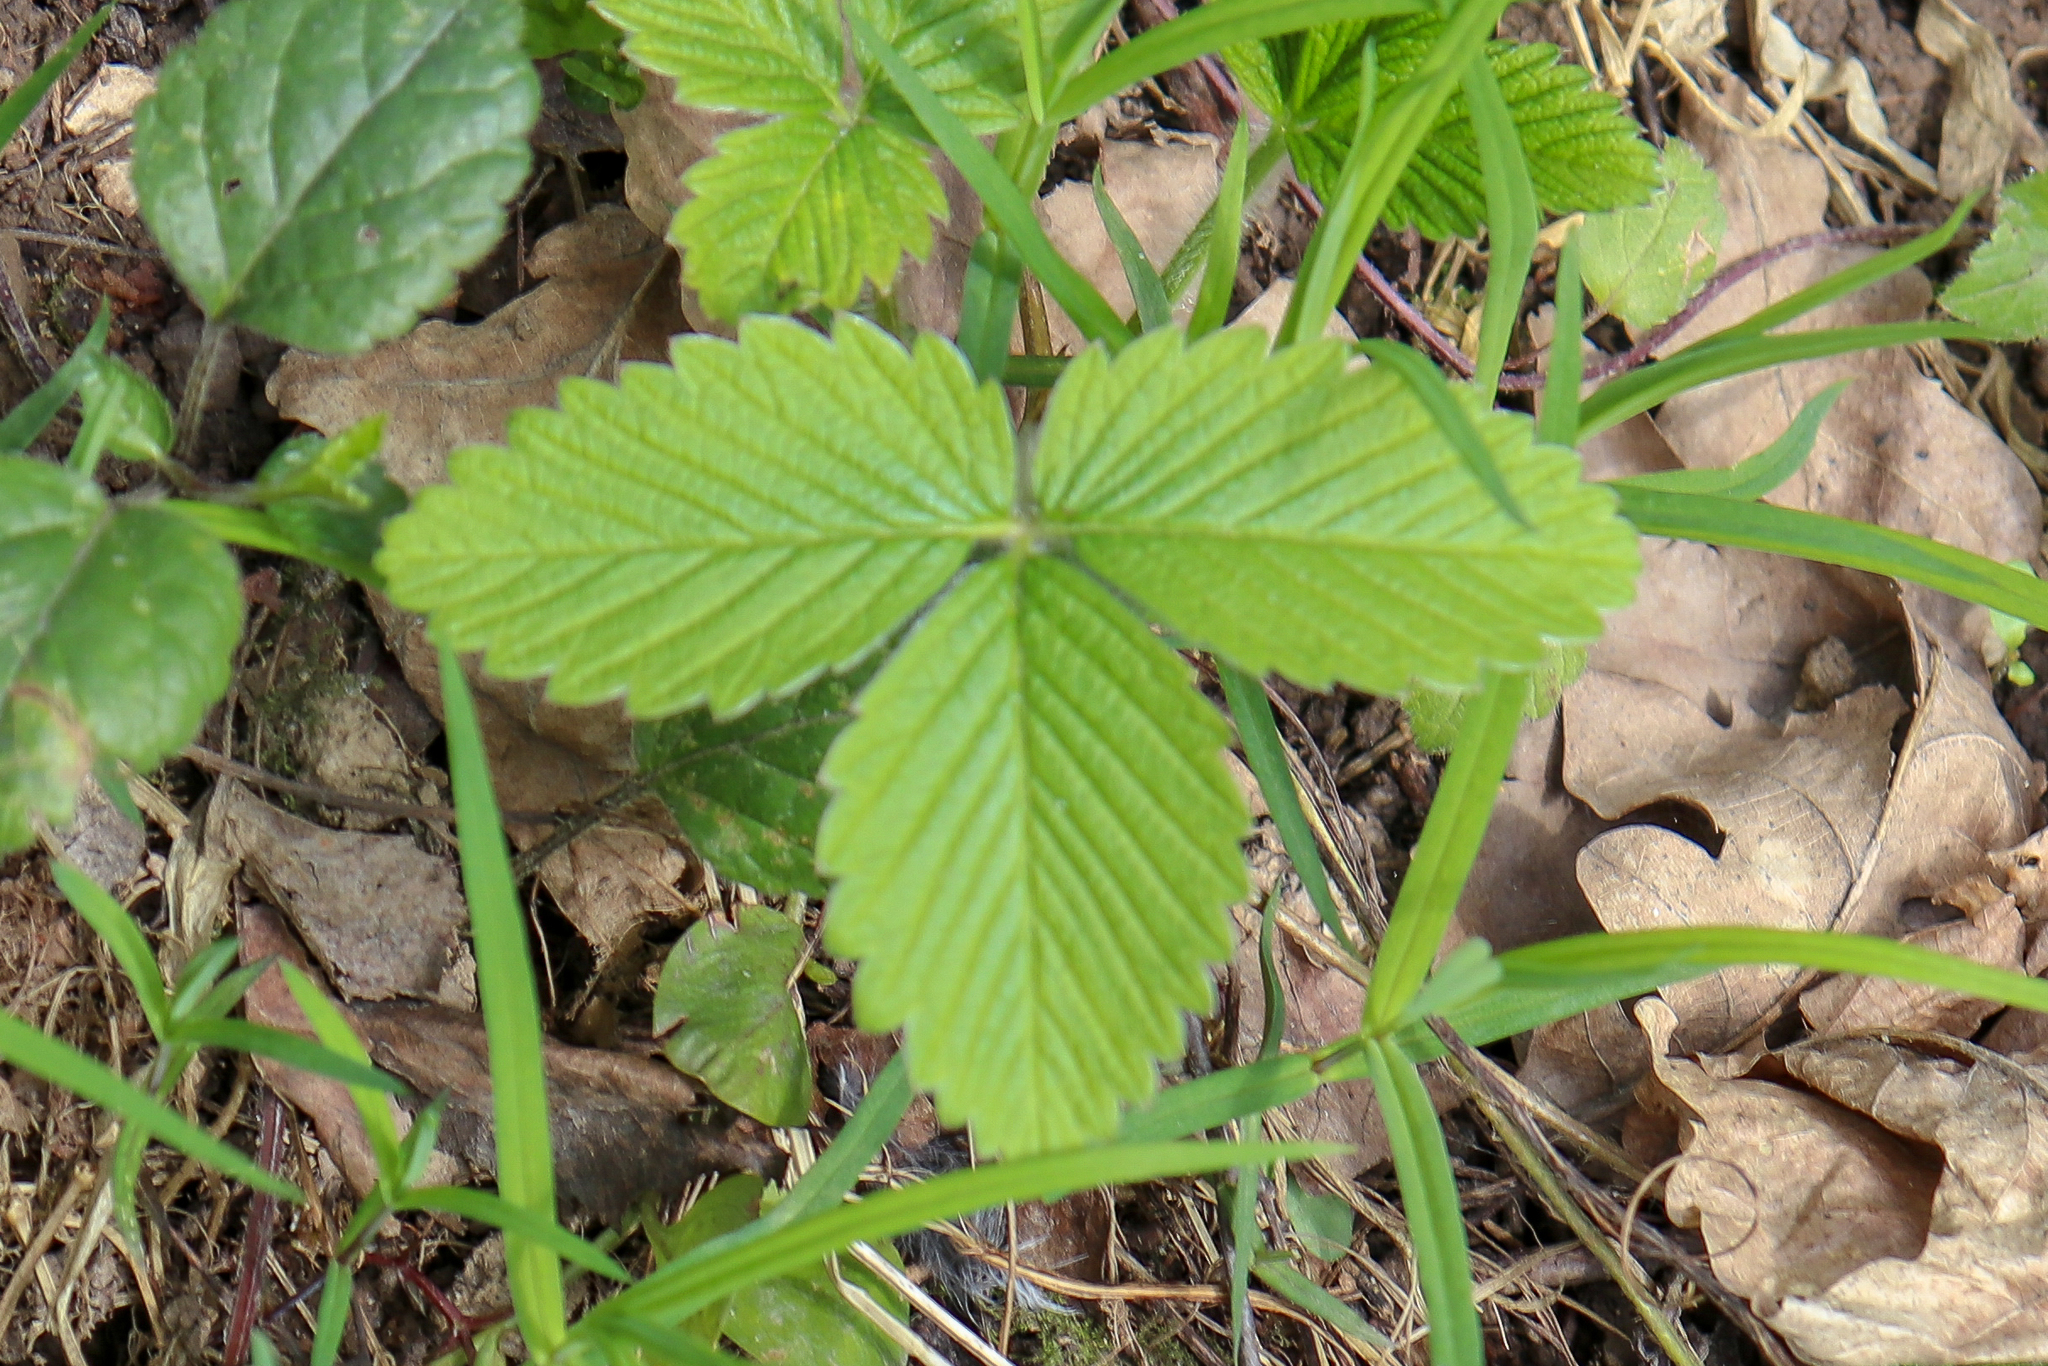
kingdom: Plantae
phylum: Tracheophyta
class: Magnoliopsida
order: Rosales
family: Rosaceae
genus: Fragaria
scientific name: Fragaria moschata
